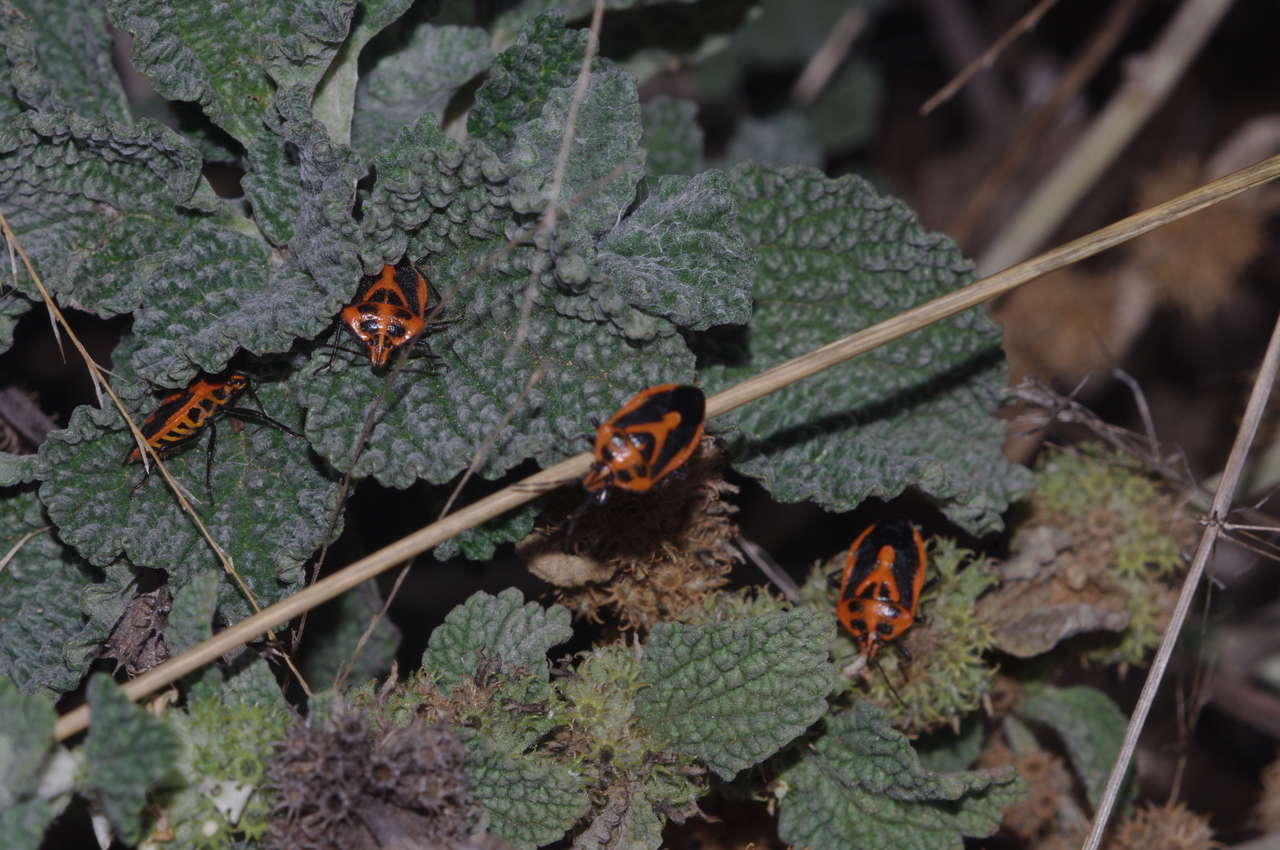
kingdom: Animalia
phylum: Arthropoda
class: Insecta
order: Hemiptera
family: Pentatomidae
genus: Agonoscelis
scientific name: Agonoscelis rutila
